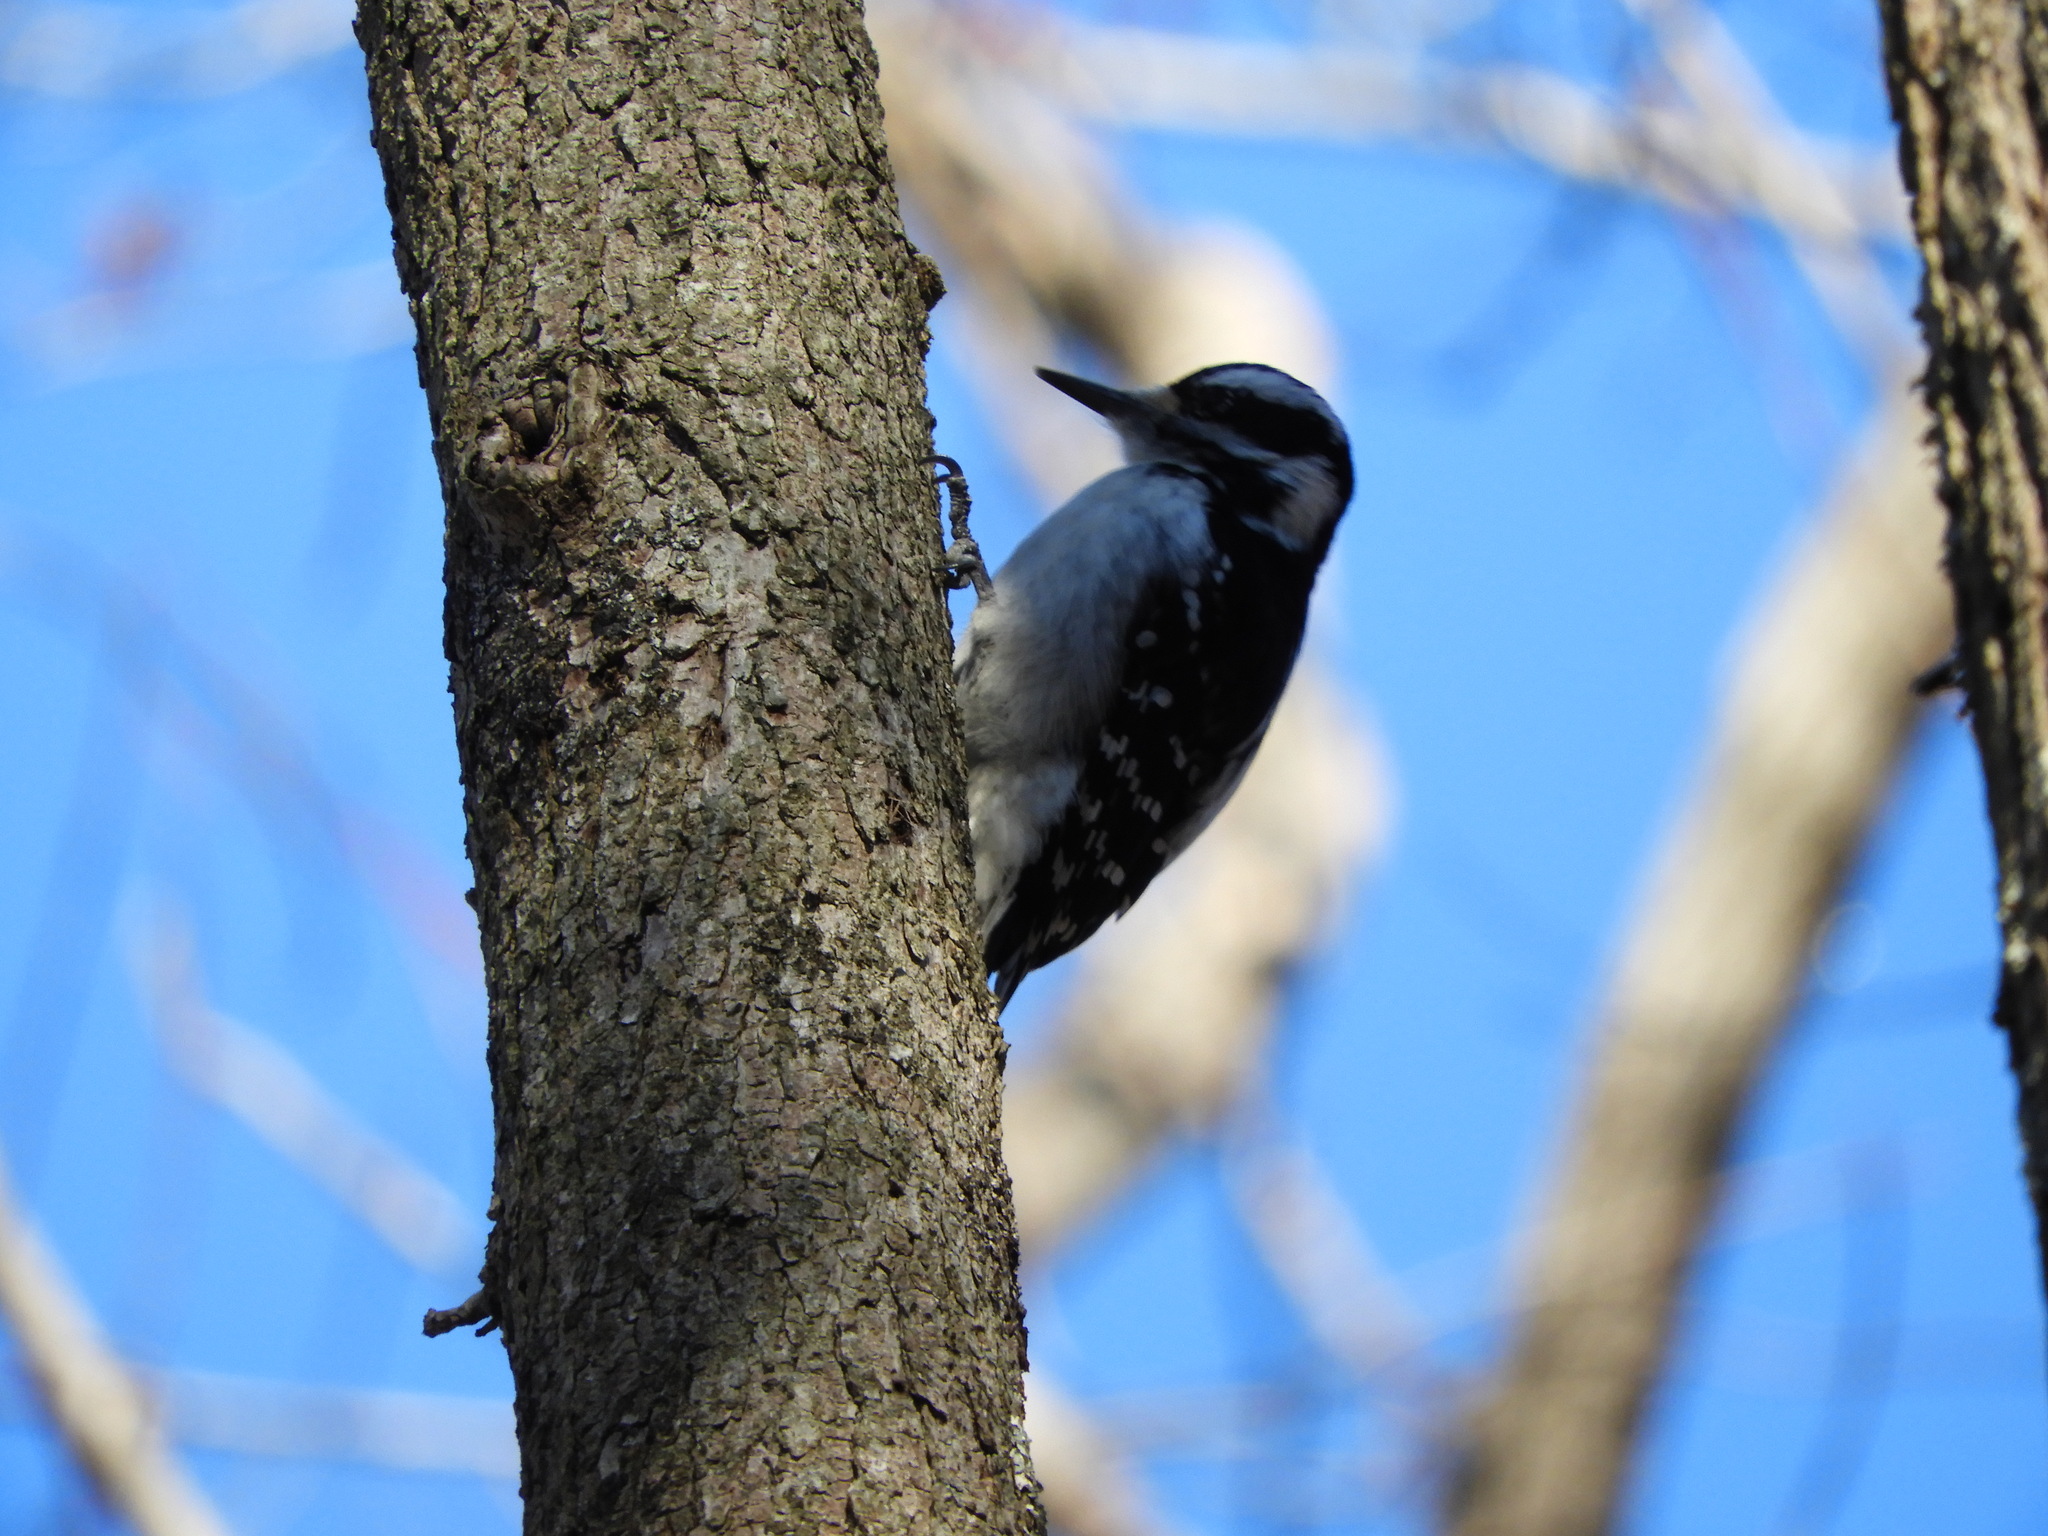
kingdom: Animalia
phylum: Chordata
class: Aves
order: Piciformes
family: Picidae
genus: Leuconotopicus
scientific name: Leuconotopicus villosus
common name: Hairy woodpecker
